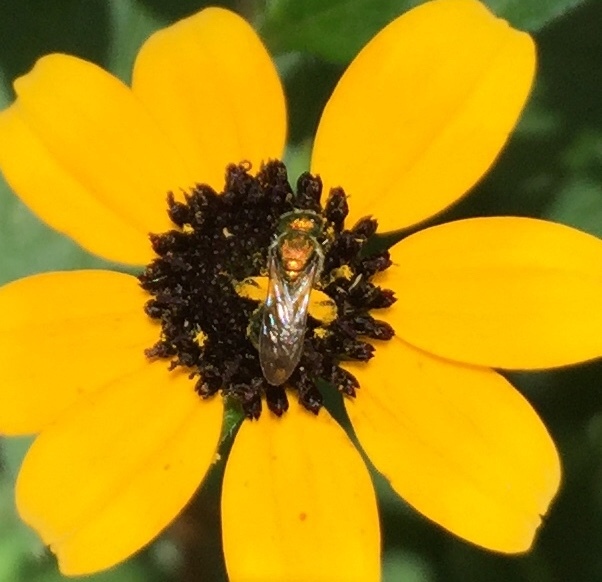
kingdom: Animalia
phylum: Arthropoda
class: Insecta
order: Hymenoptera
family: Halictidae
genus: Augochlora
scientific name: Augochlora pura
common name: Pure green sweat bee
